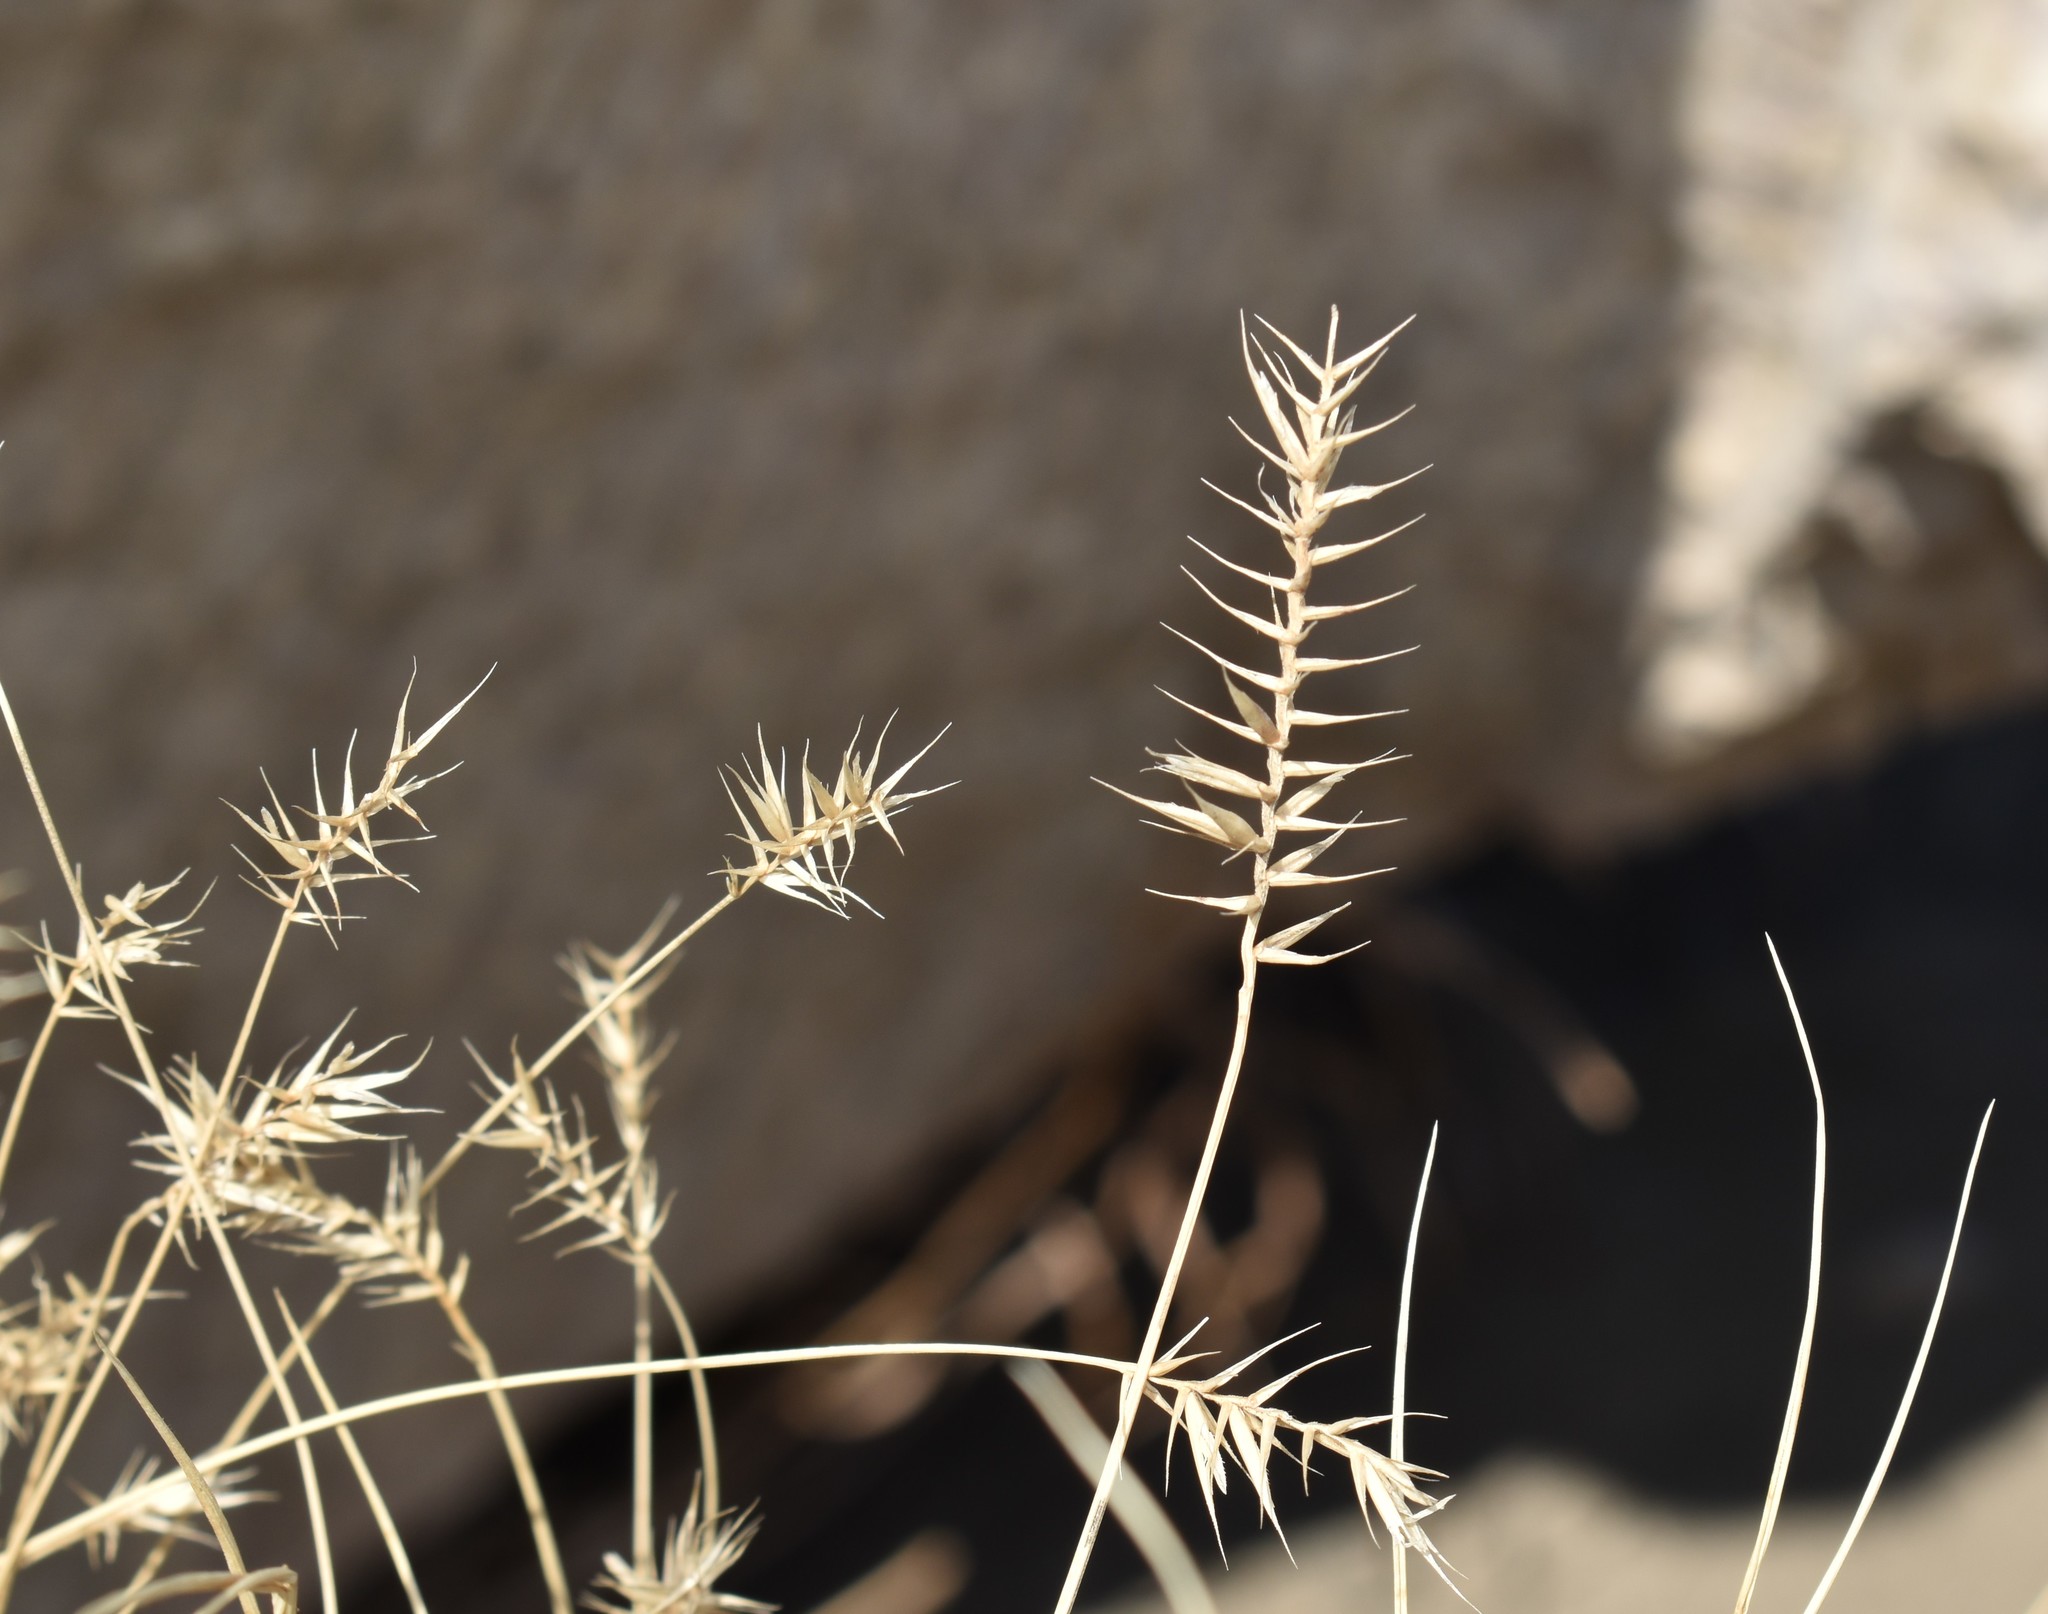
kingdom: Plantae
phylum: Tracheophyta
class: Liliopsida
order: Poales
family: Poaceae
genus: Agropyron
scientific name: Agropyron cristatum
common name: Crested wheatgrass
